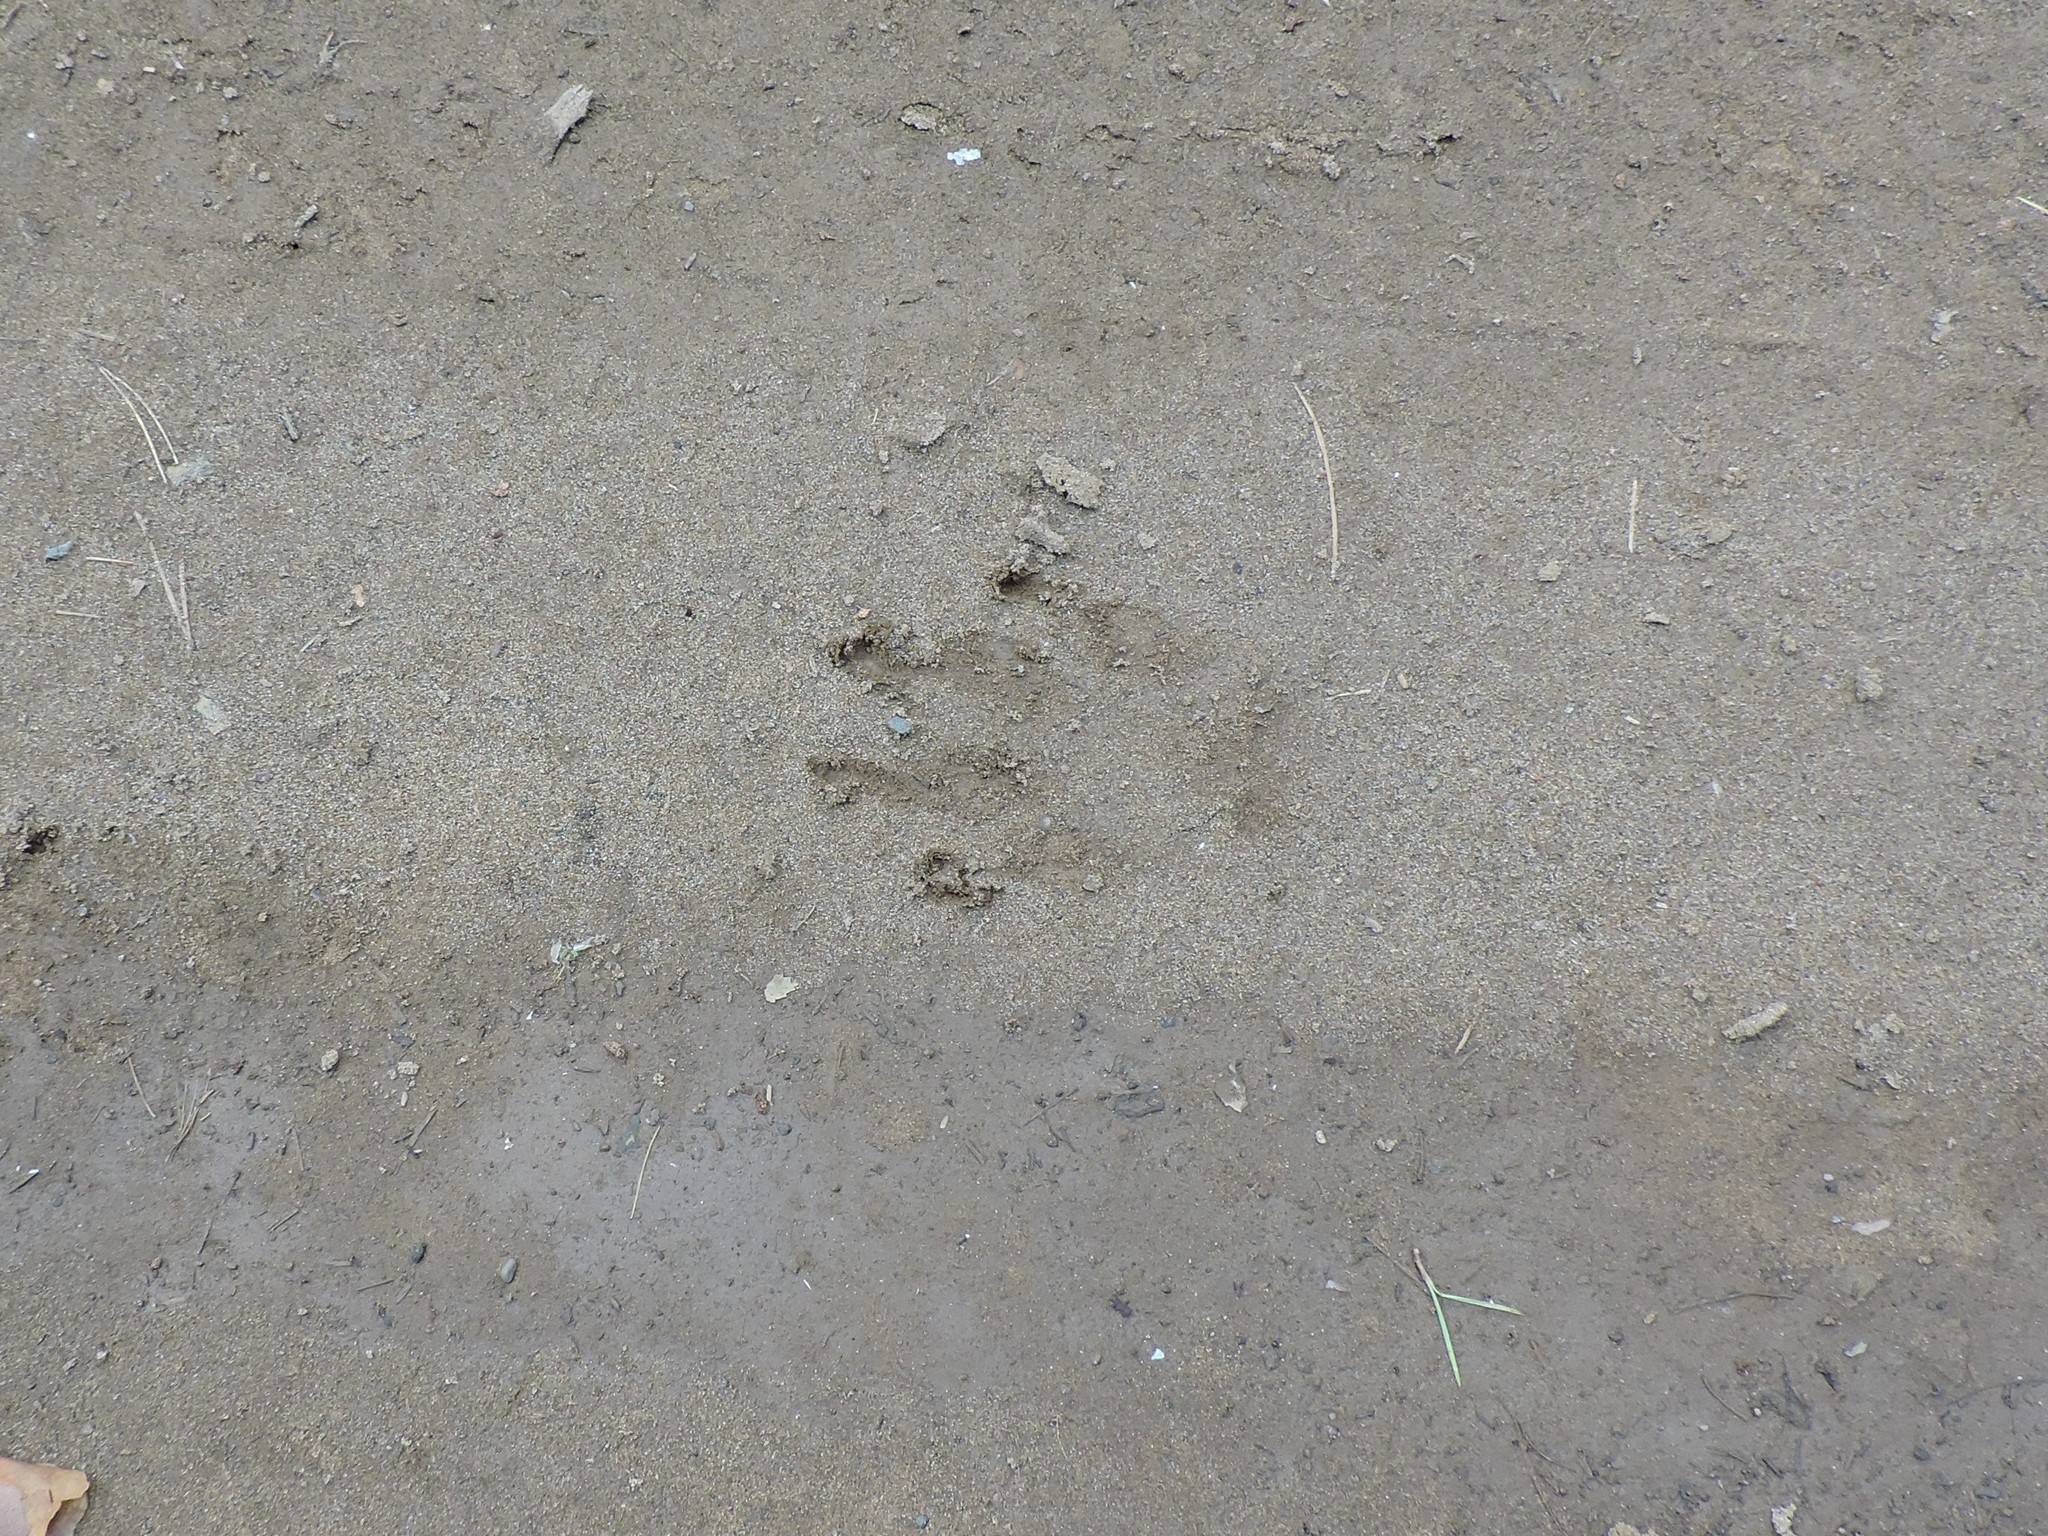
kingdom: Animalia
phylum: Chordata
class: Mammalia
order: Carnivora
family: Canidae
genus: Canis
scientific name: Canis lupus
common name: Gray wolf
